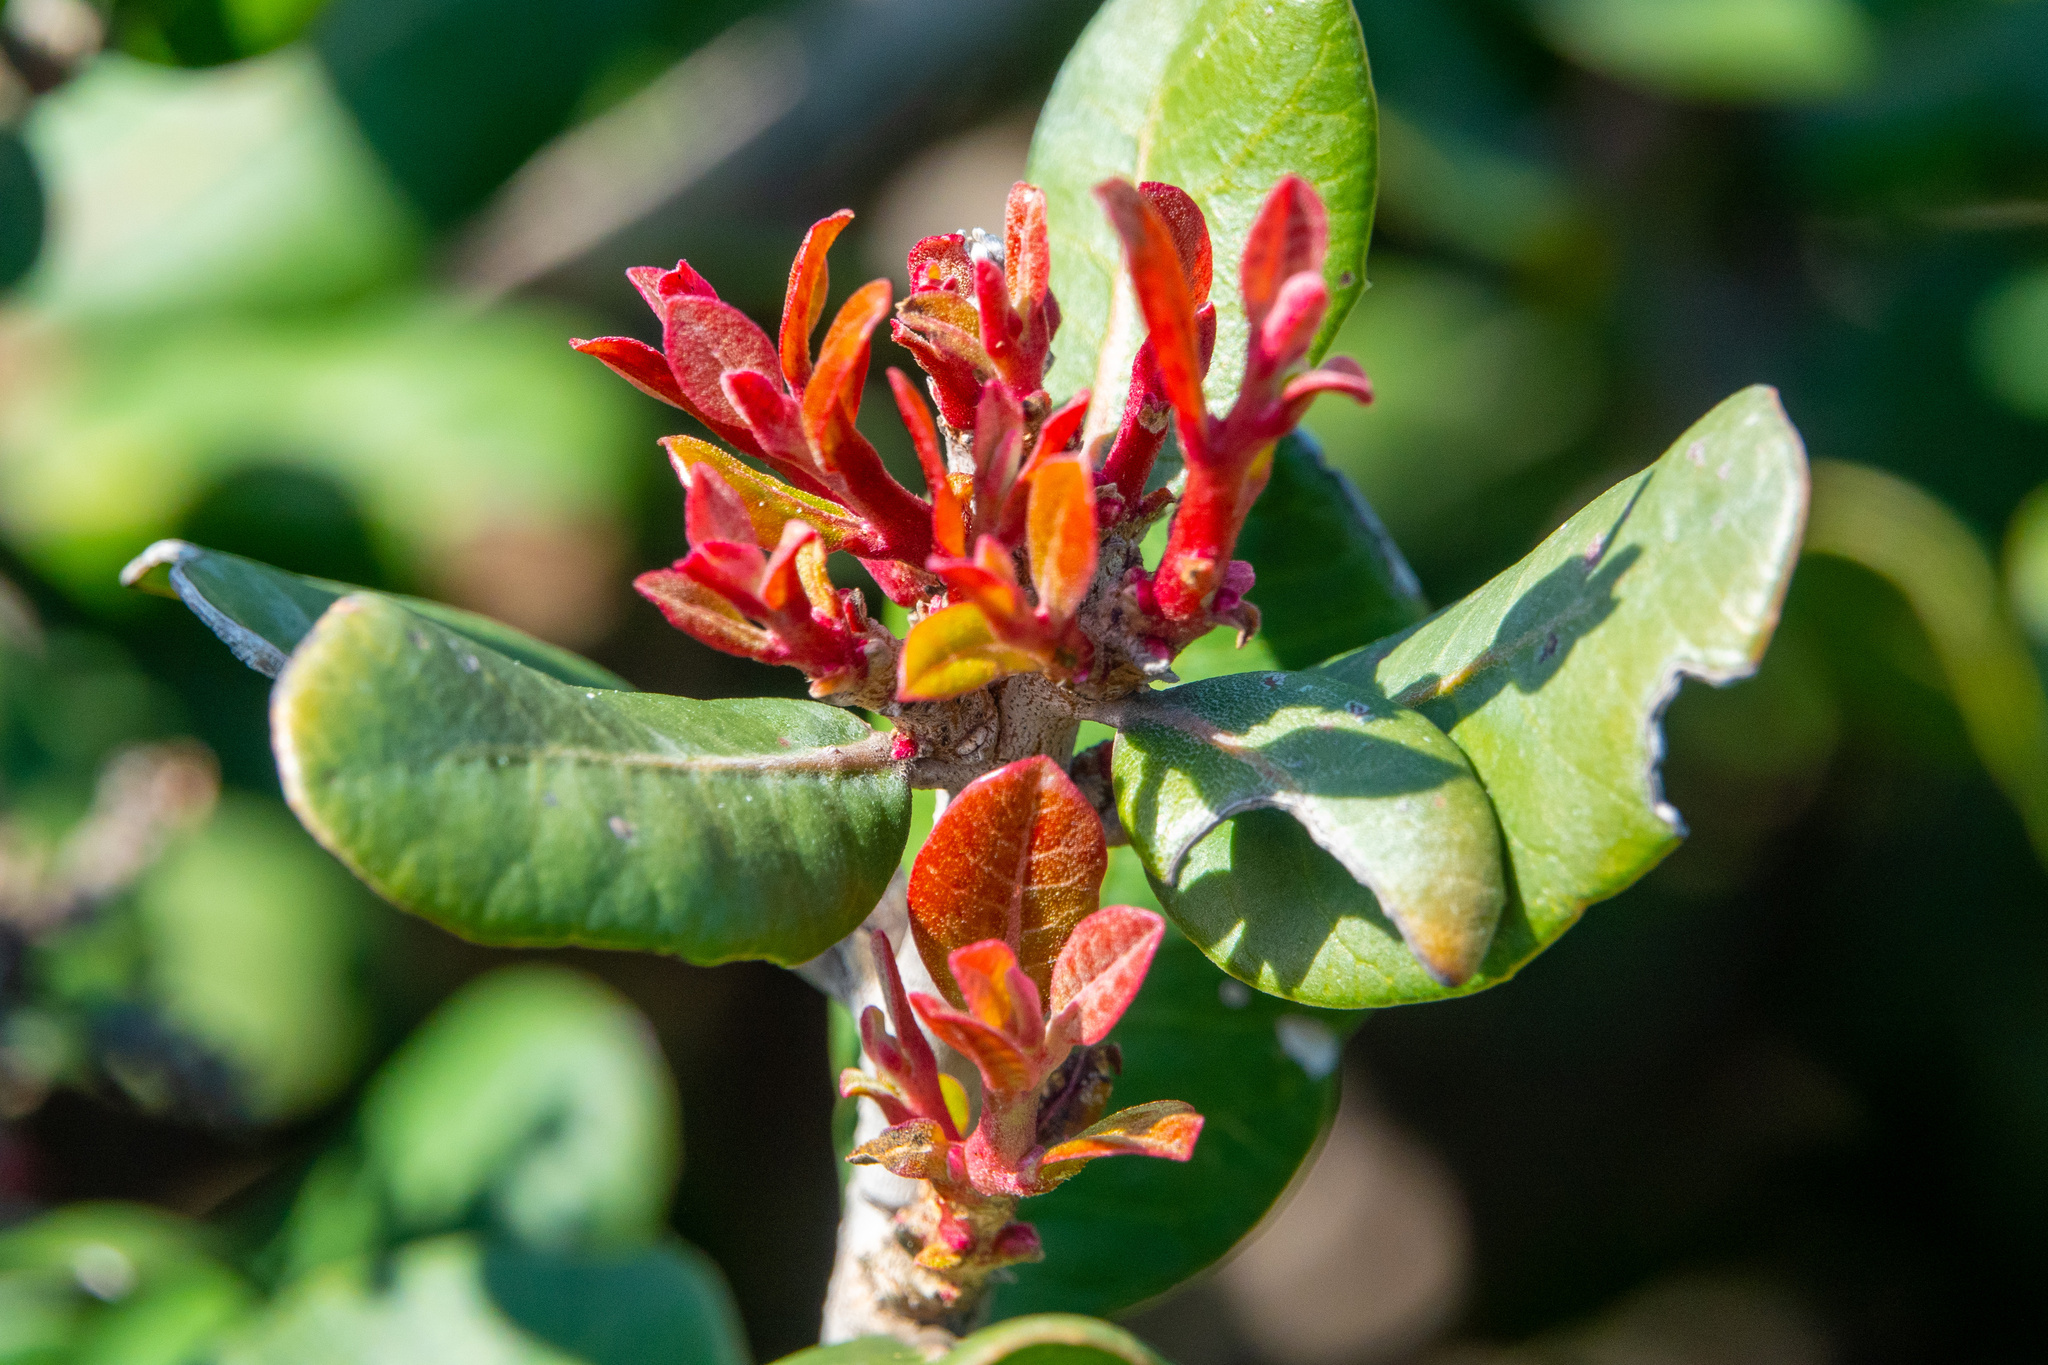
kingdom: Plantae
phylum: Tracheophyta
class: Magnoliopsida
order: Sapindales
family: Anacardiaceae
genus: Rhus
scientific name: Rhus integrifolia
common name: Lemonade sumac
